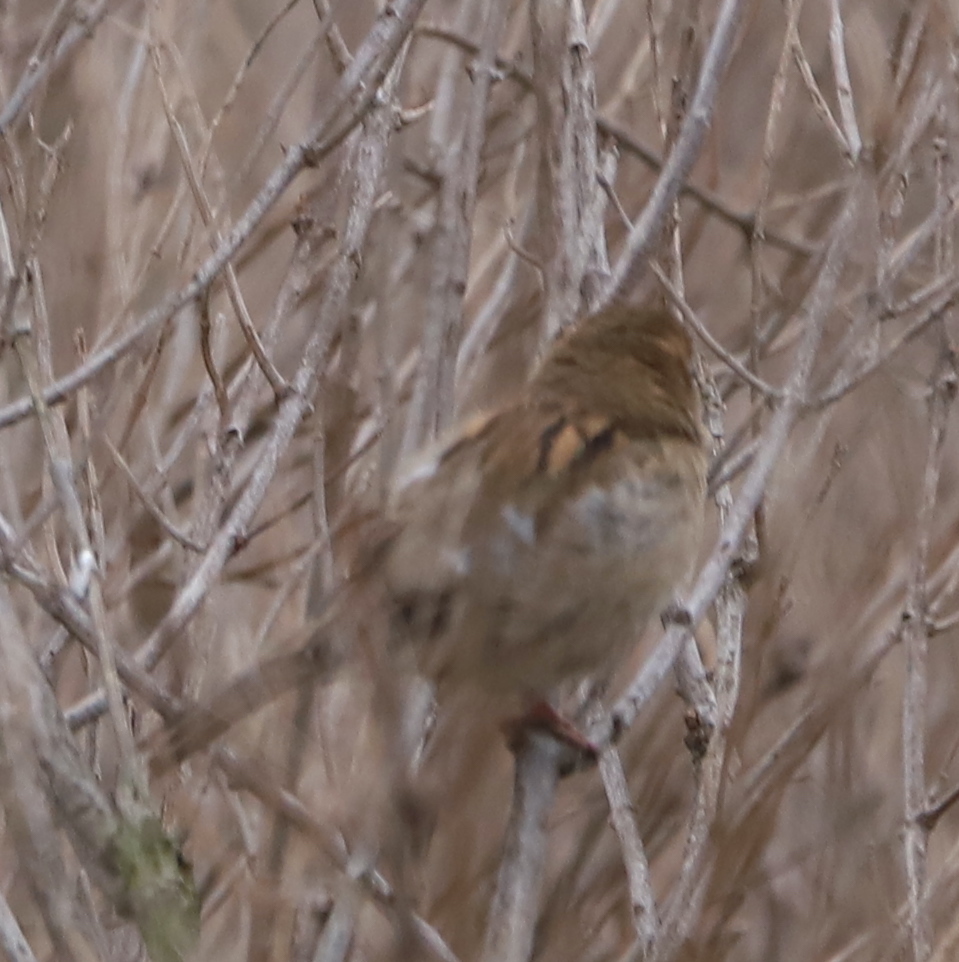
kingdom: Animalia
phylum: Chordata
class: Aves
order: Passeriformes
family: Passeridae
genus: Passer
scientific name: Passer domesticus
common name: House sparrow
